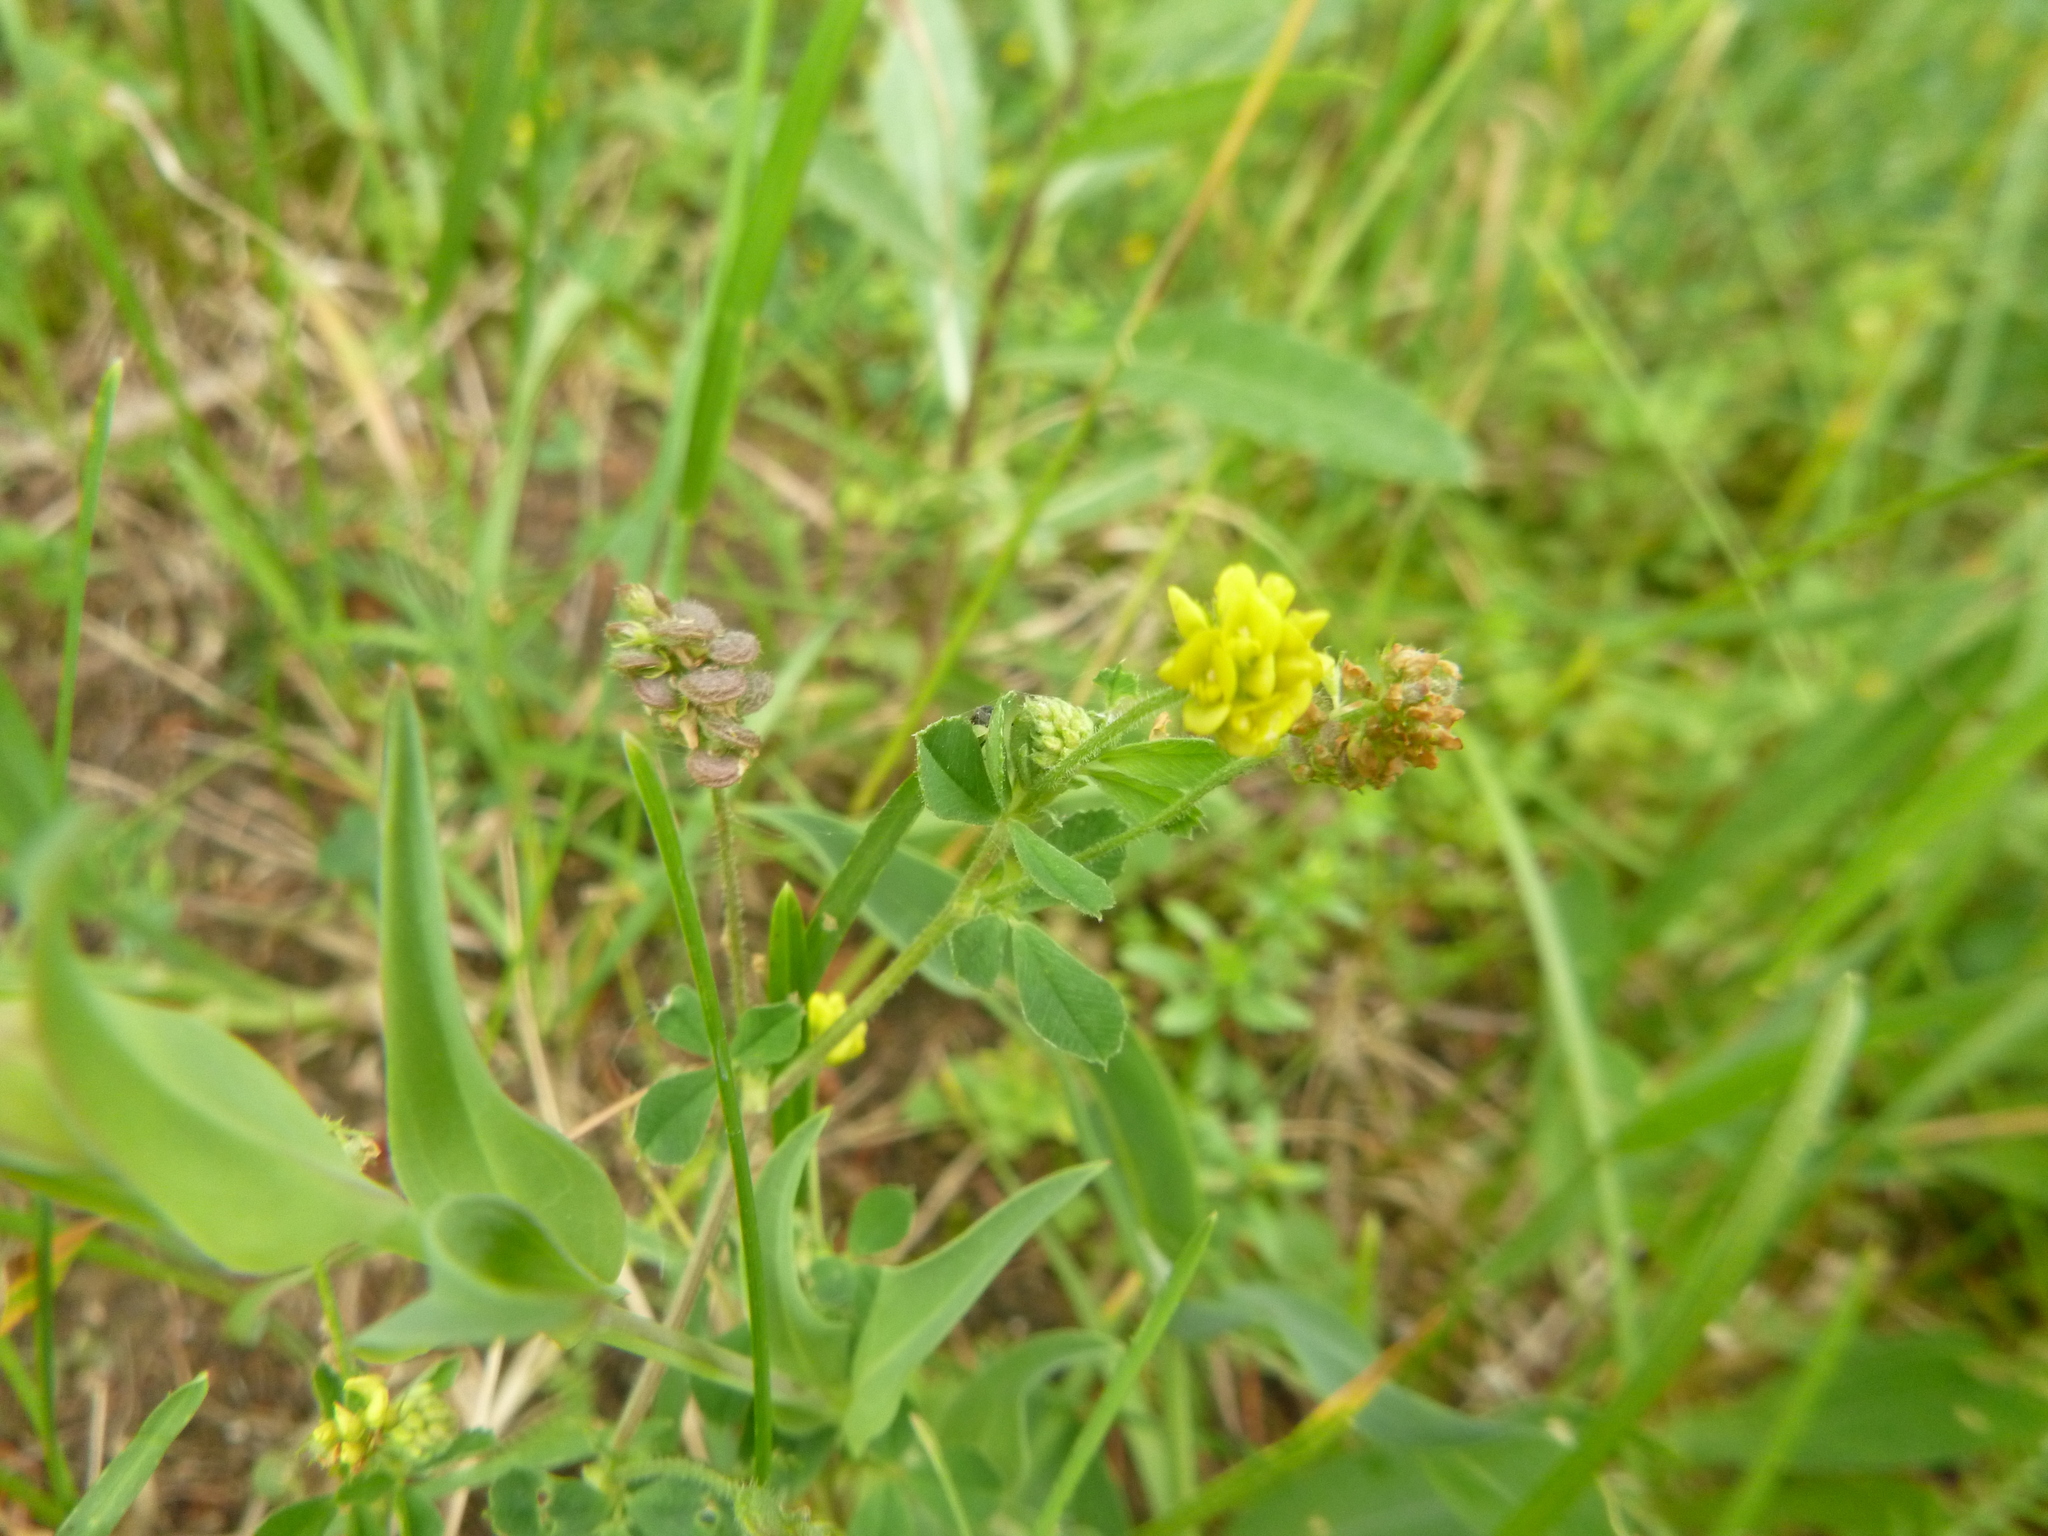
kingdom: Plantae
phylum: Tracheophyta
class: Magnoliopsida
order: Fabales
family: Fabaceae
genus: Medicago
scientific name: Medicago lupulina
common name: Black medick
